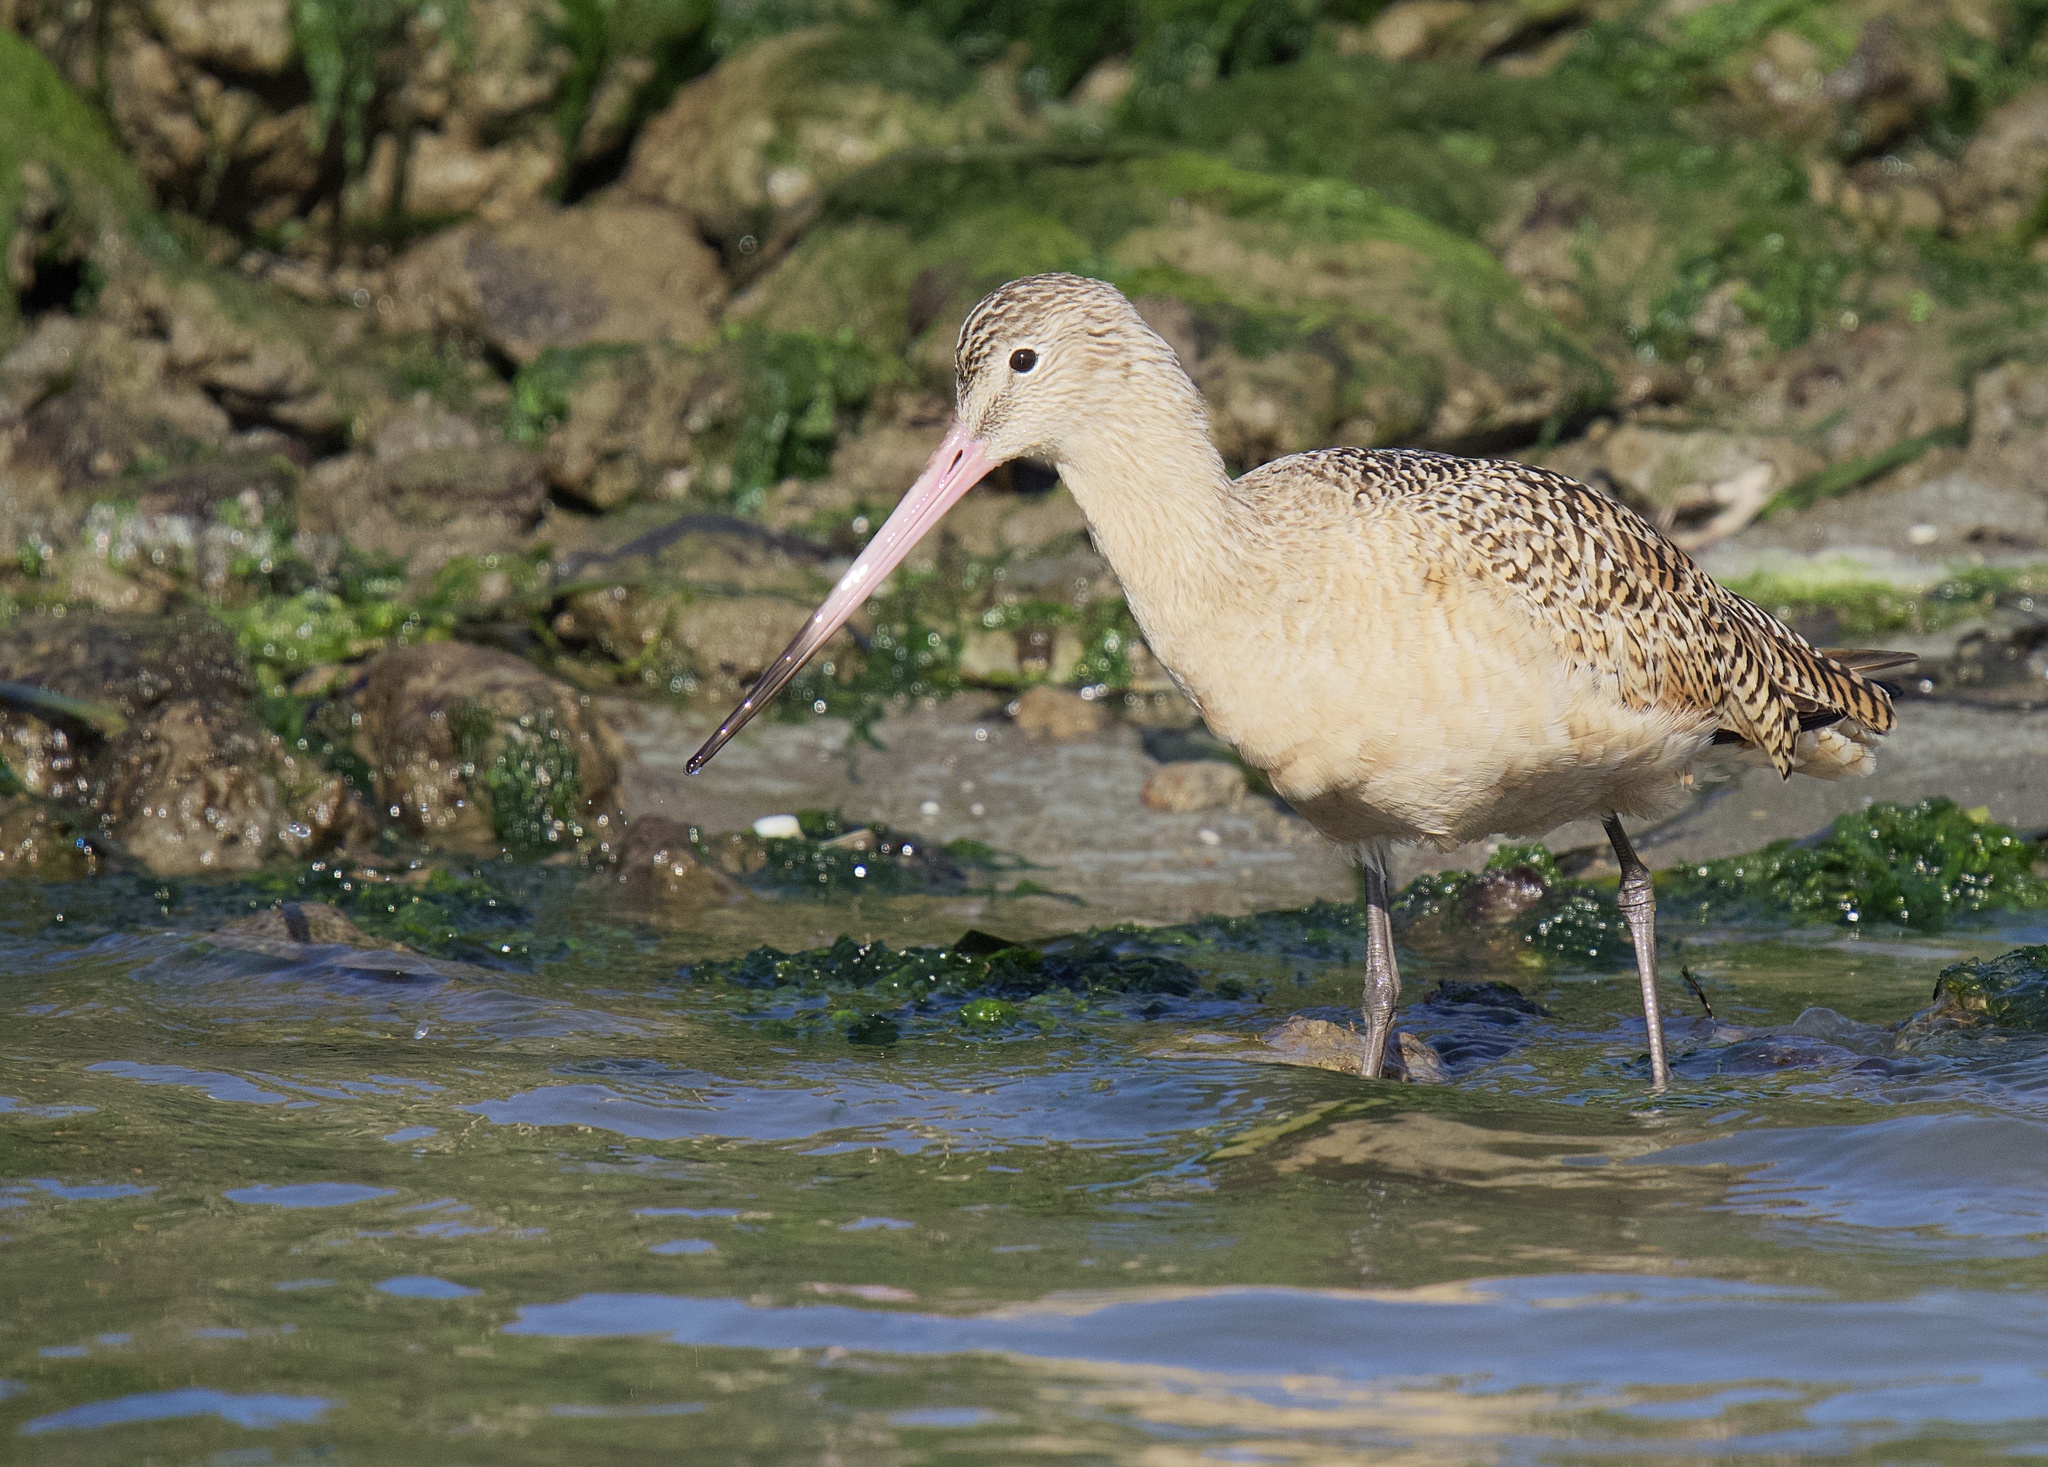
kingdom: Animalia
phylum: Chordata
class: Aves
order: Charadriiformes
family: Scolopacidae
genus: Limosa
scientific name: Limosa fedoa
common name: Marbled godwit
